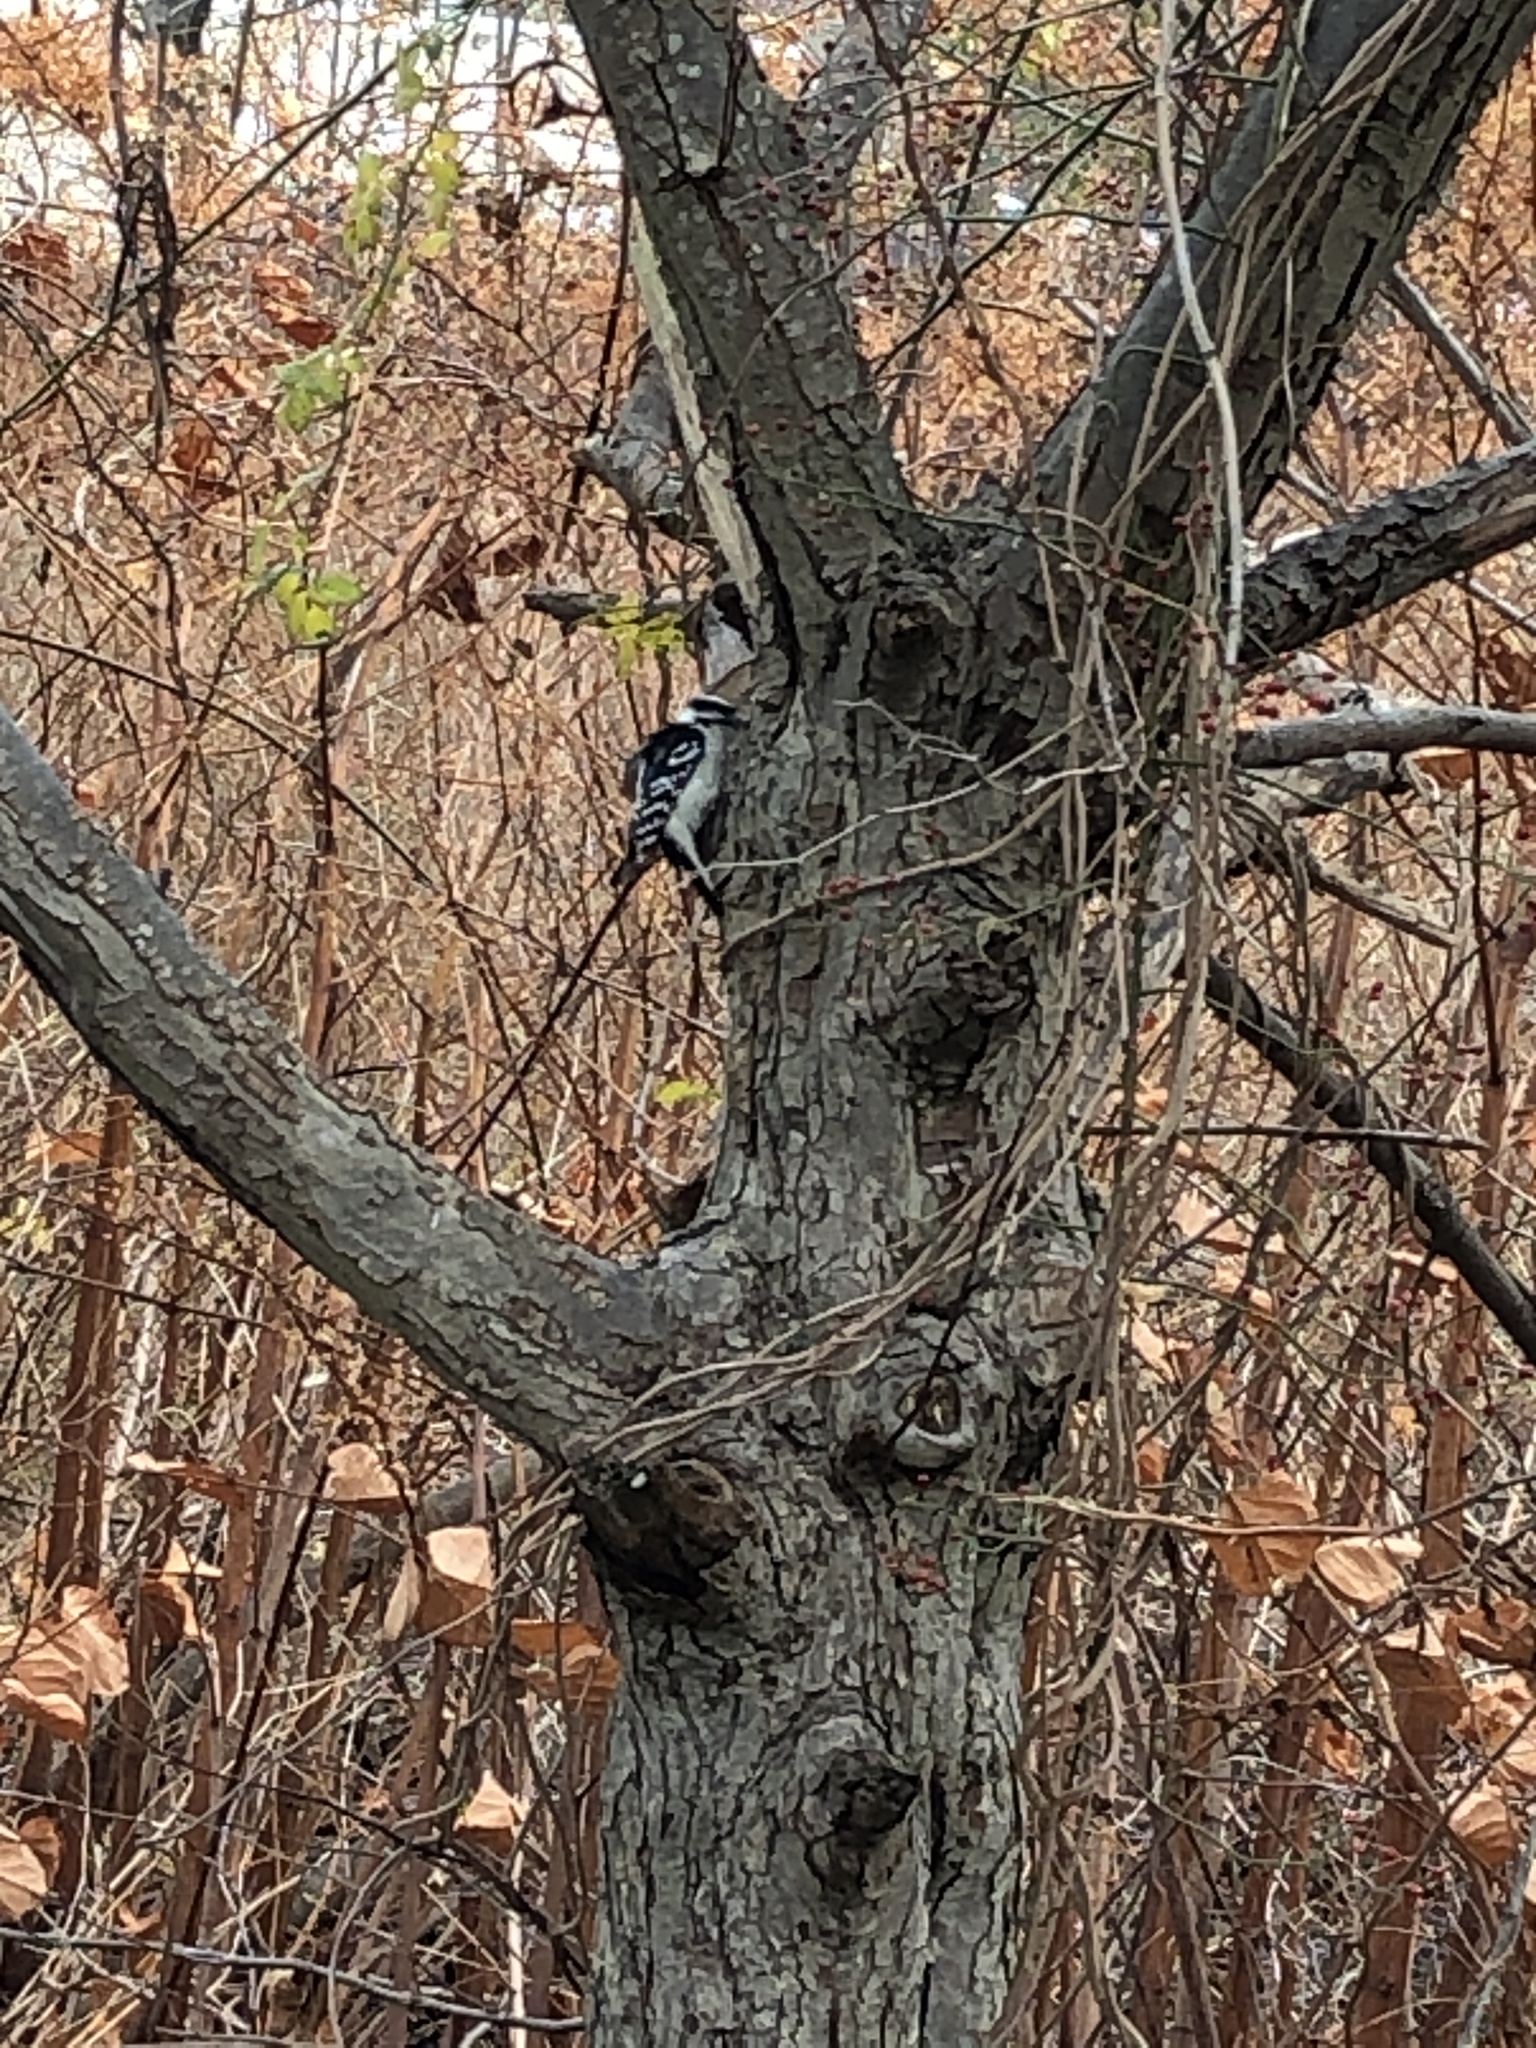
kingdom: Animalia
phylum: Chordata
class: Aves
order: Piciformes
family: Picidae
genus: Dryobates
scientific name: Dryobates pubescens
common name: Downy woodpecker
